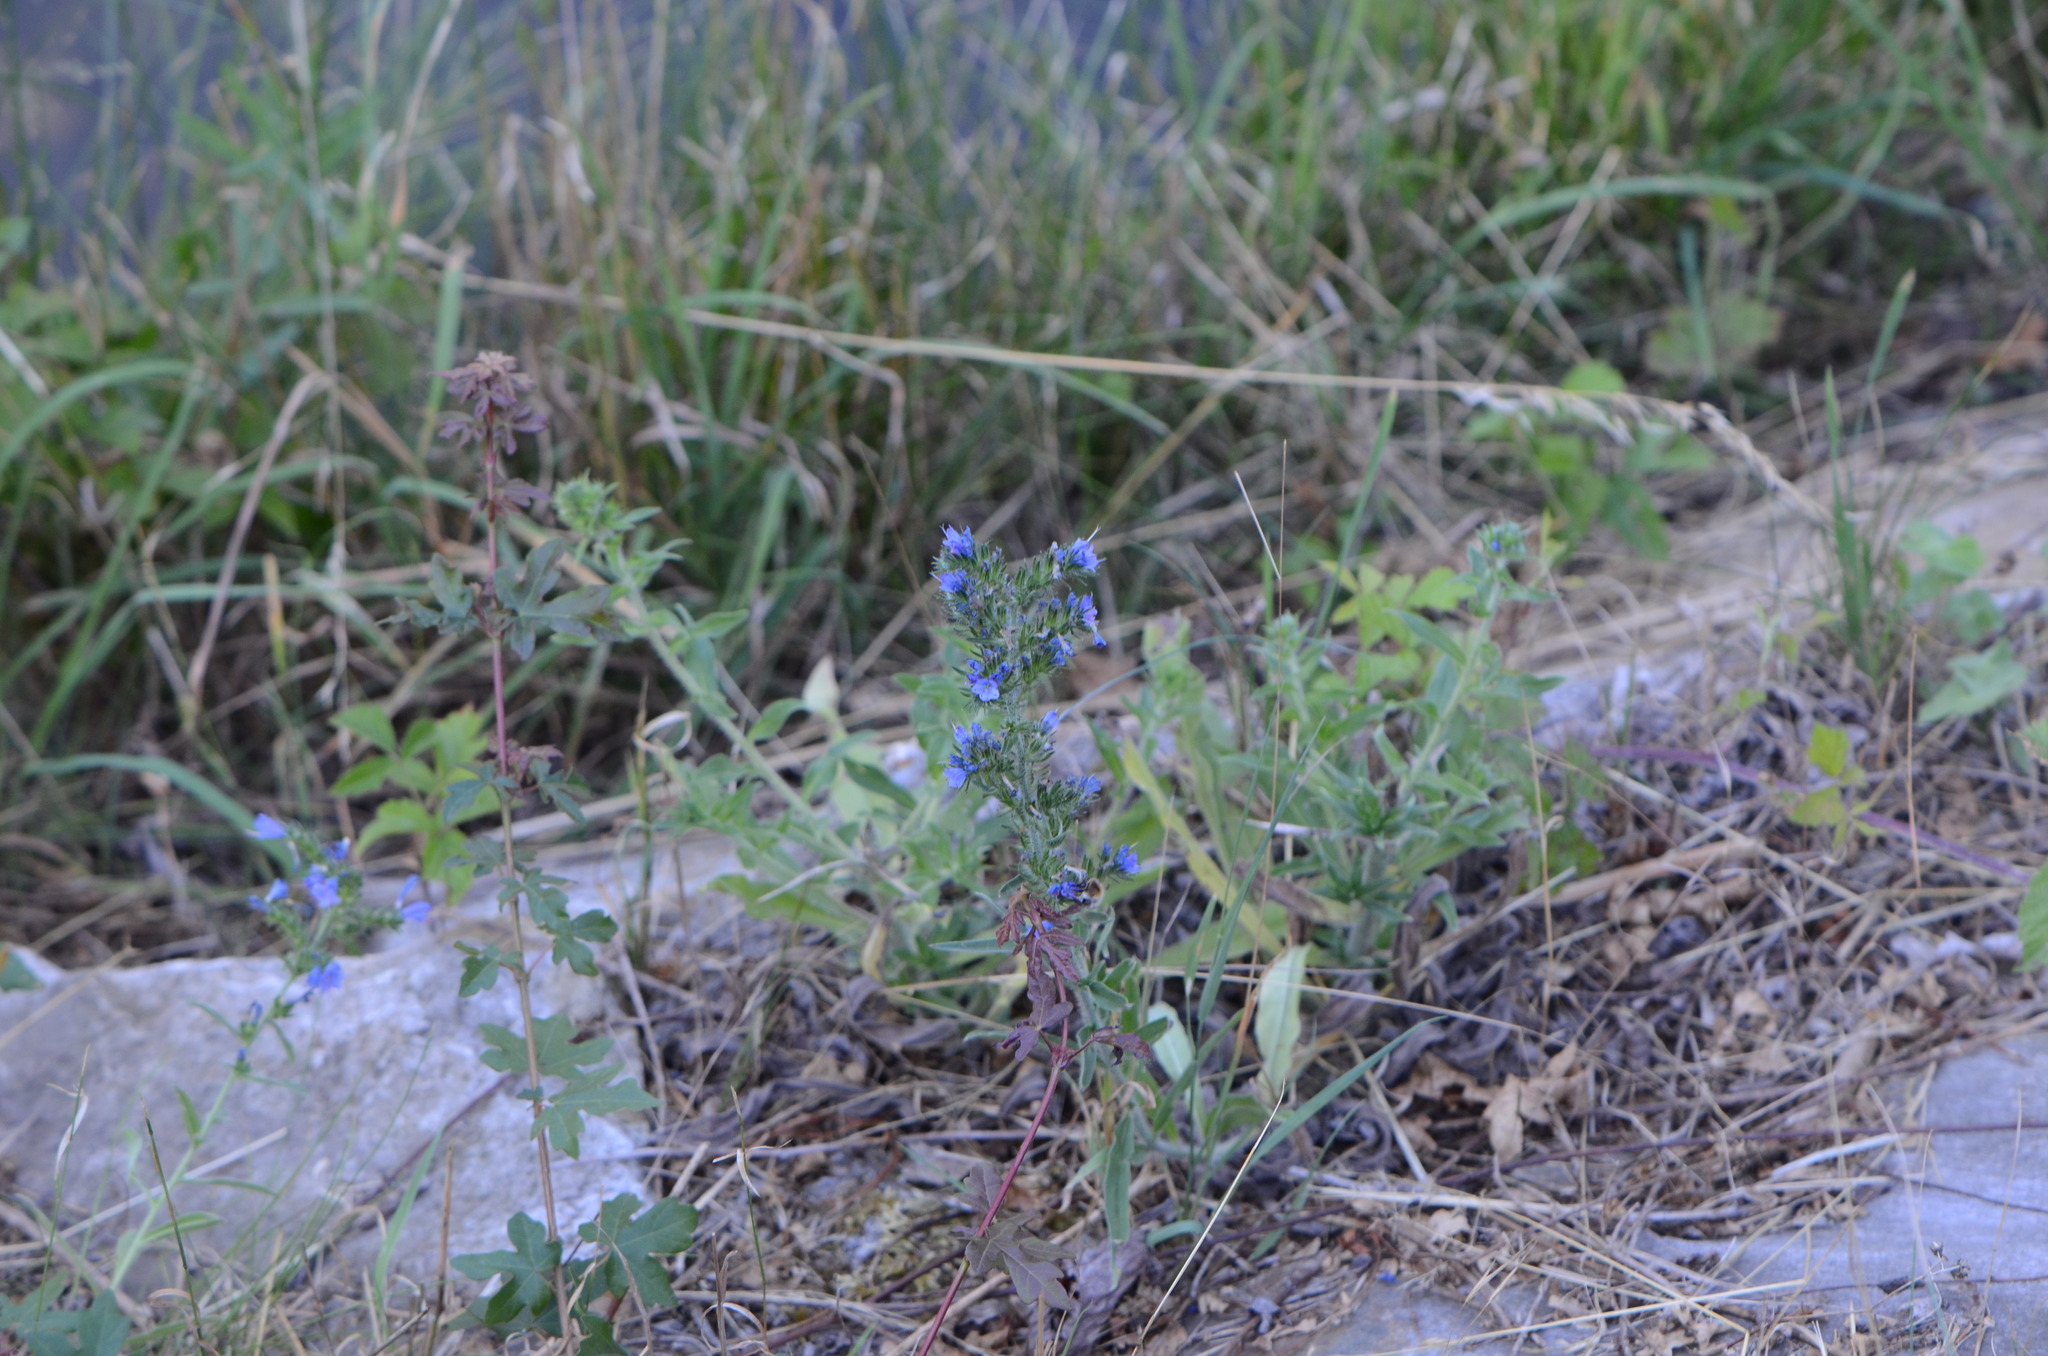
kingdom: Plantae
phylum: Tracheophyta
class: Magnoliopsida
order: Boraginales
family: Boraginaceae
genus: Echium
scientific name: Echium vulgare
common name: Common viper's bugloss
